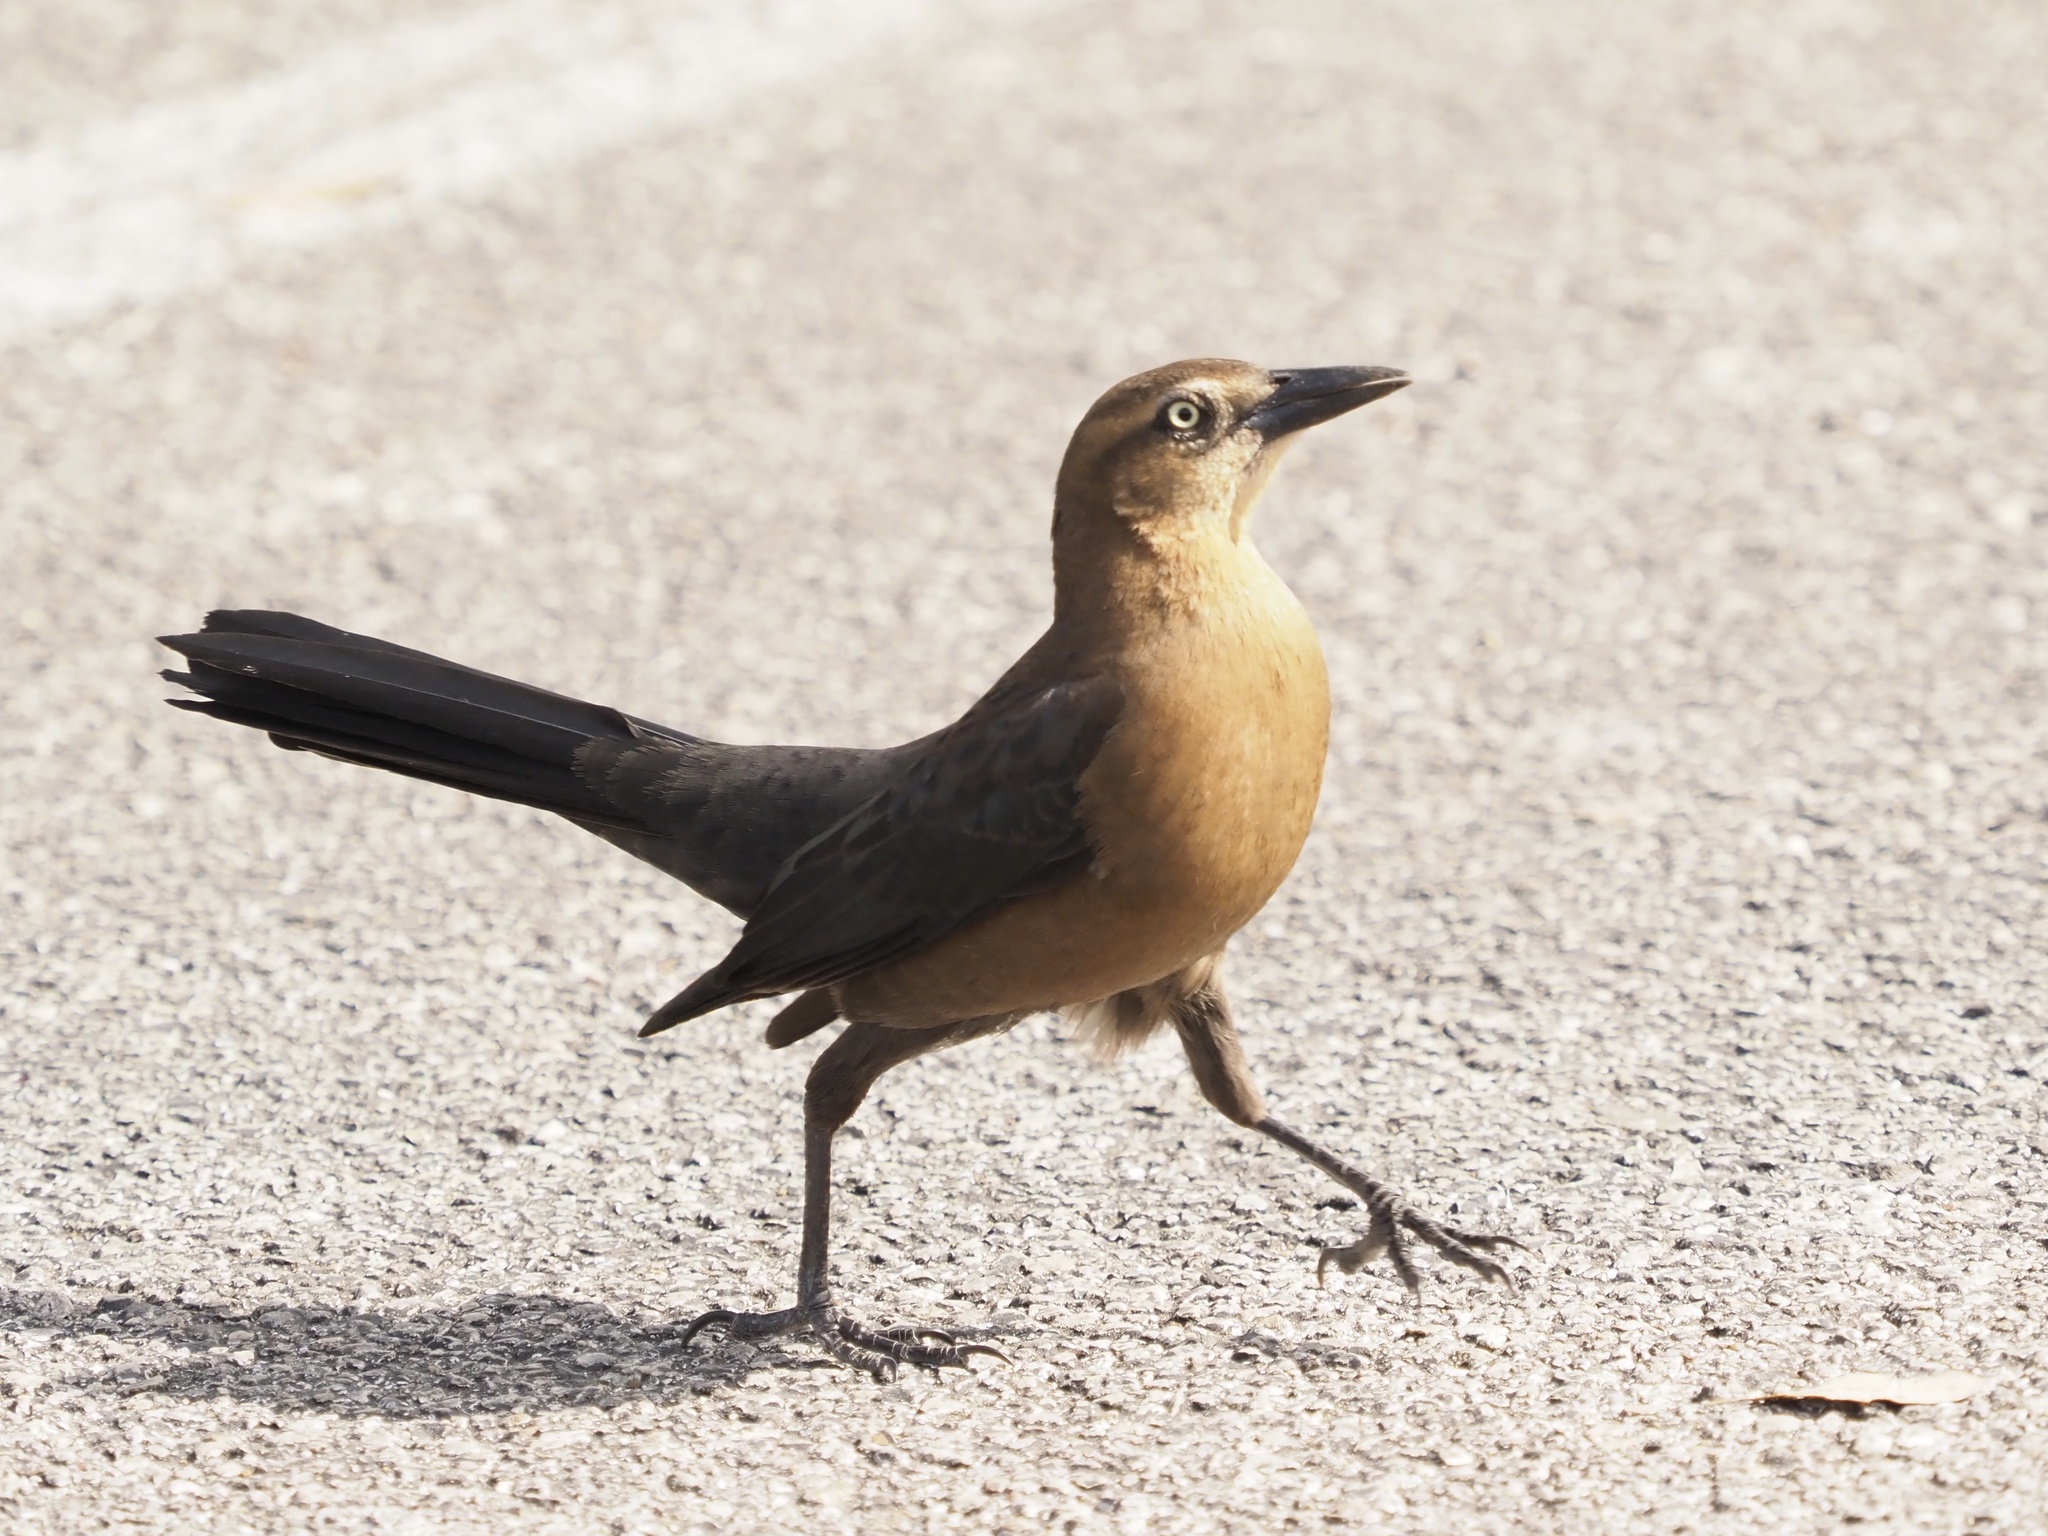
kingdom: Animalia
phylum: Chordata
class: Aves
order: Passeriformes
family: Icteridae
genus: Quiscalus
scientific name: Quiscalus mexicanus
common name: Great-tailed grackle
